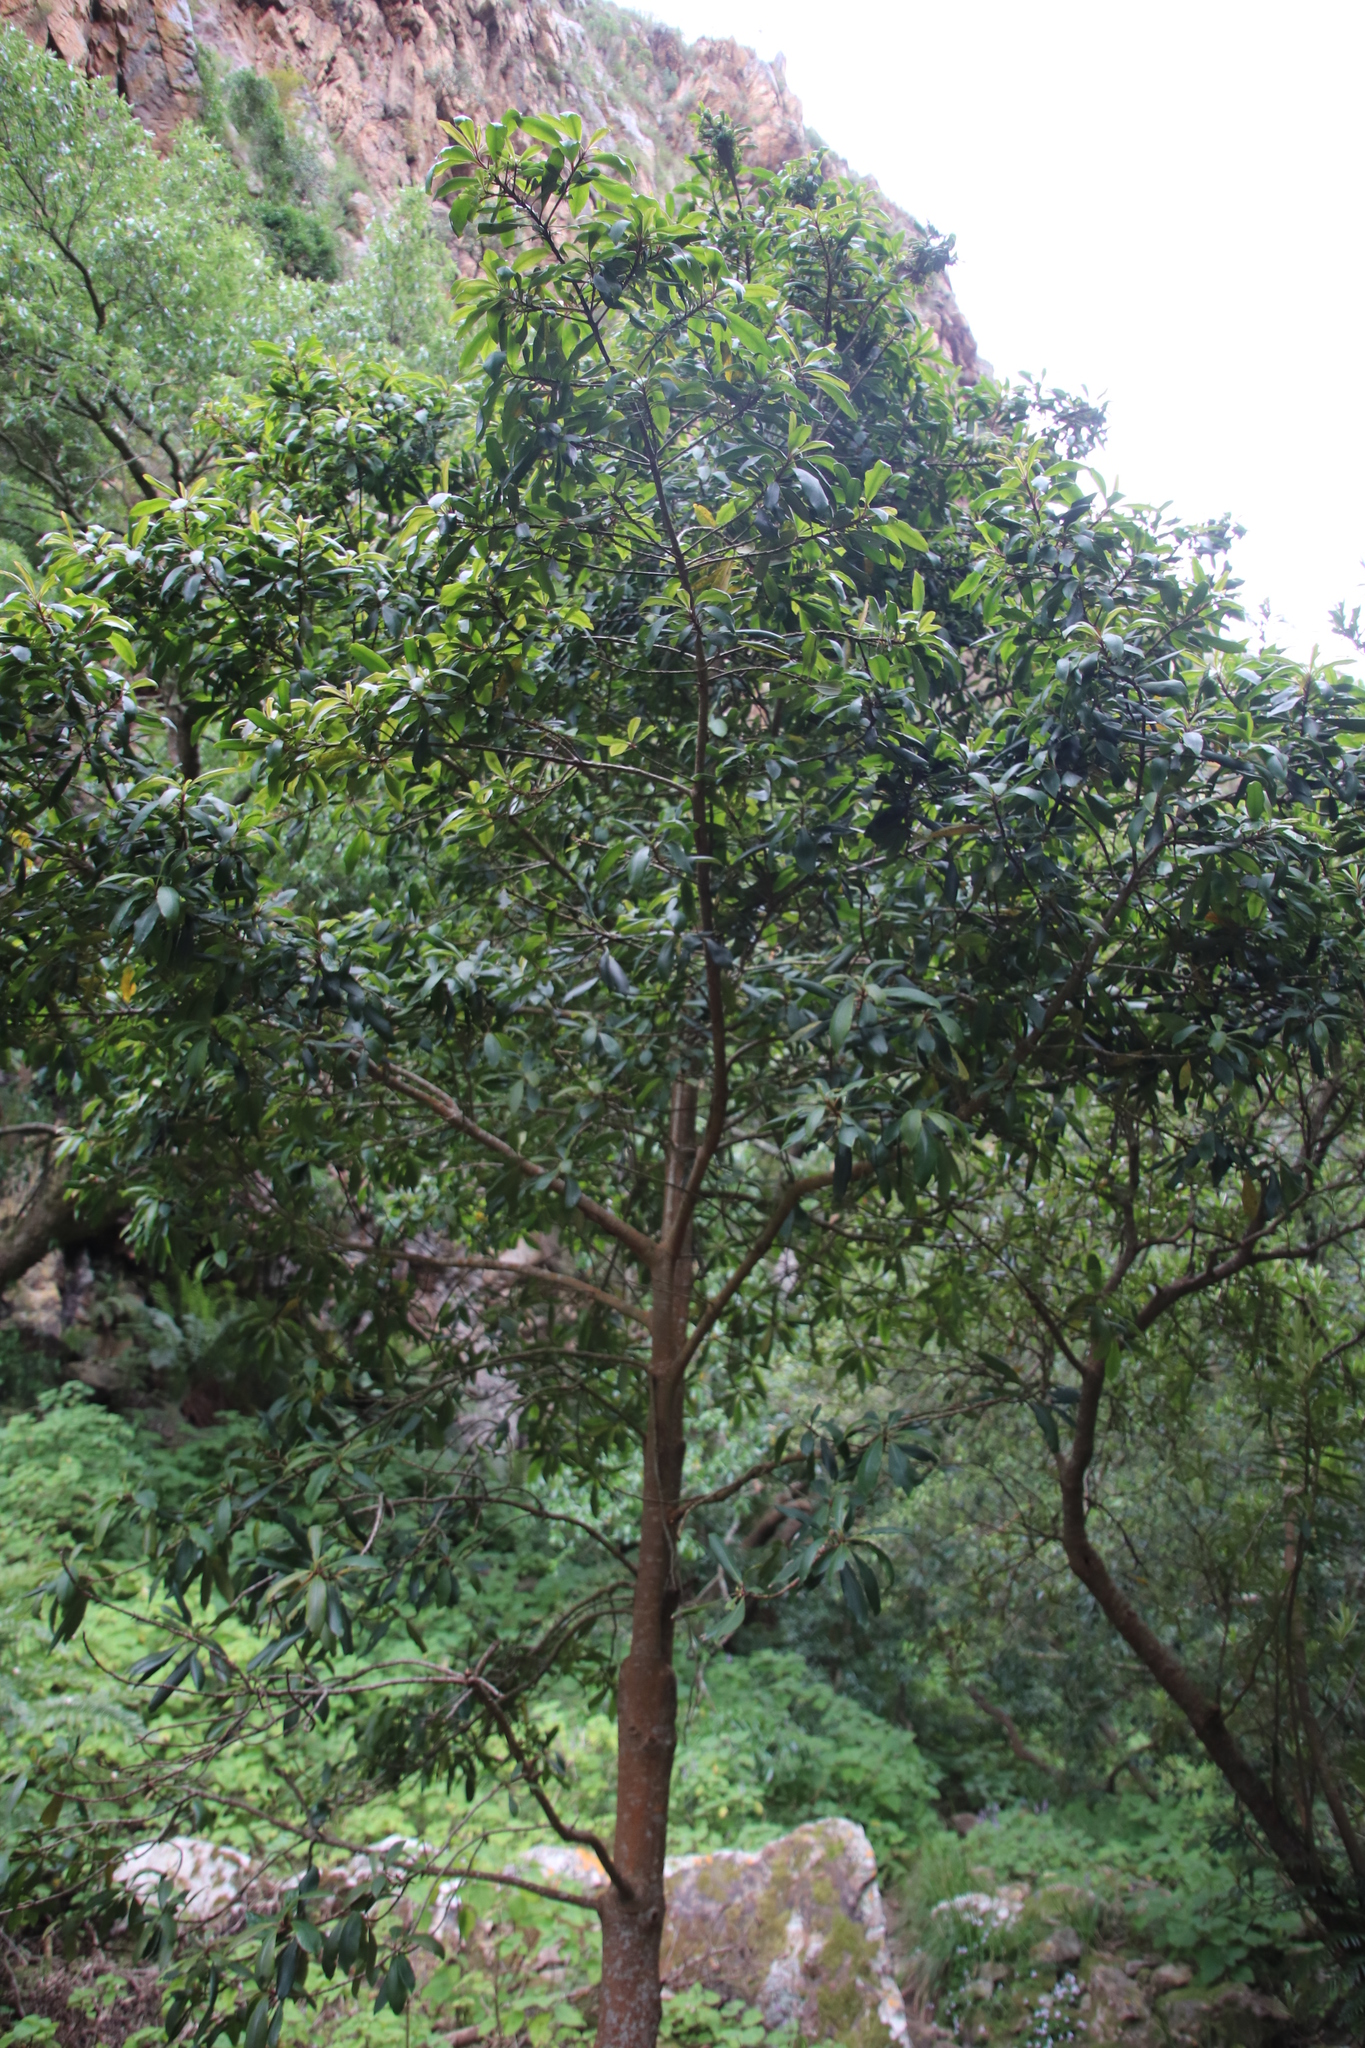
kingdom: Plantae
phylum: Tracheophyta
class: Magnoliopsida
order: Ericales
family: Primulaceae
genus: Myrsine
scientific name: Myrsine melanophloeos
